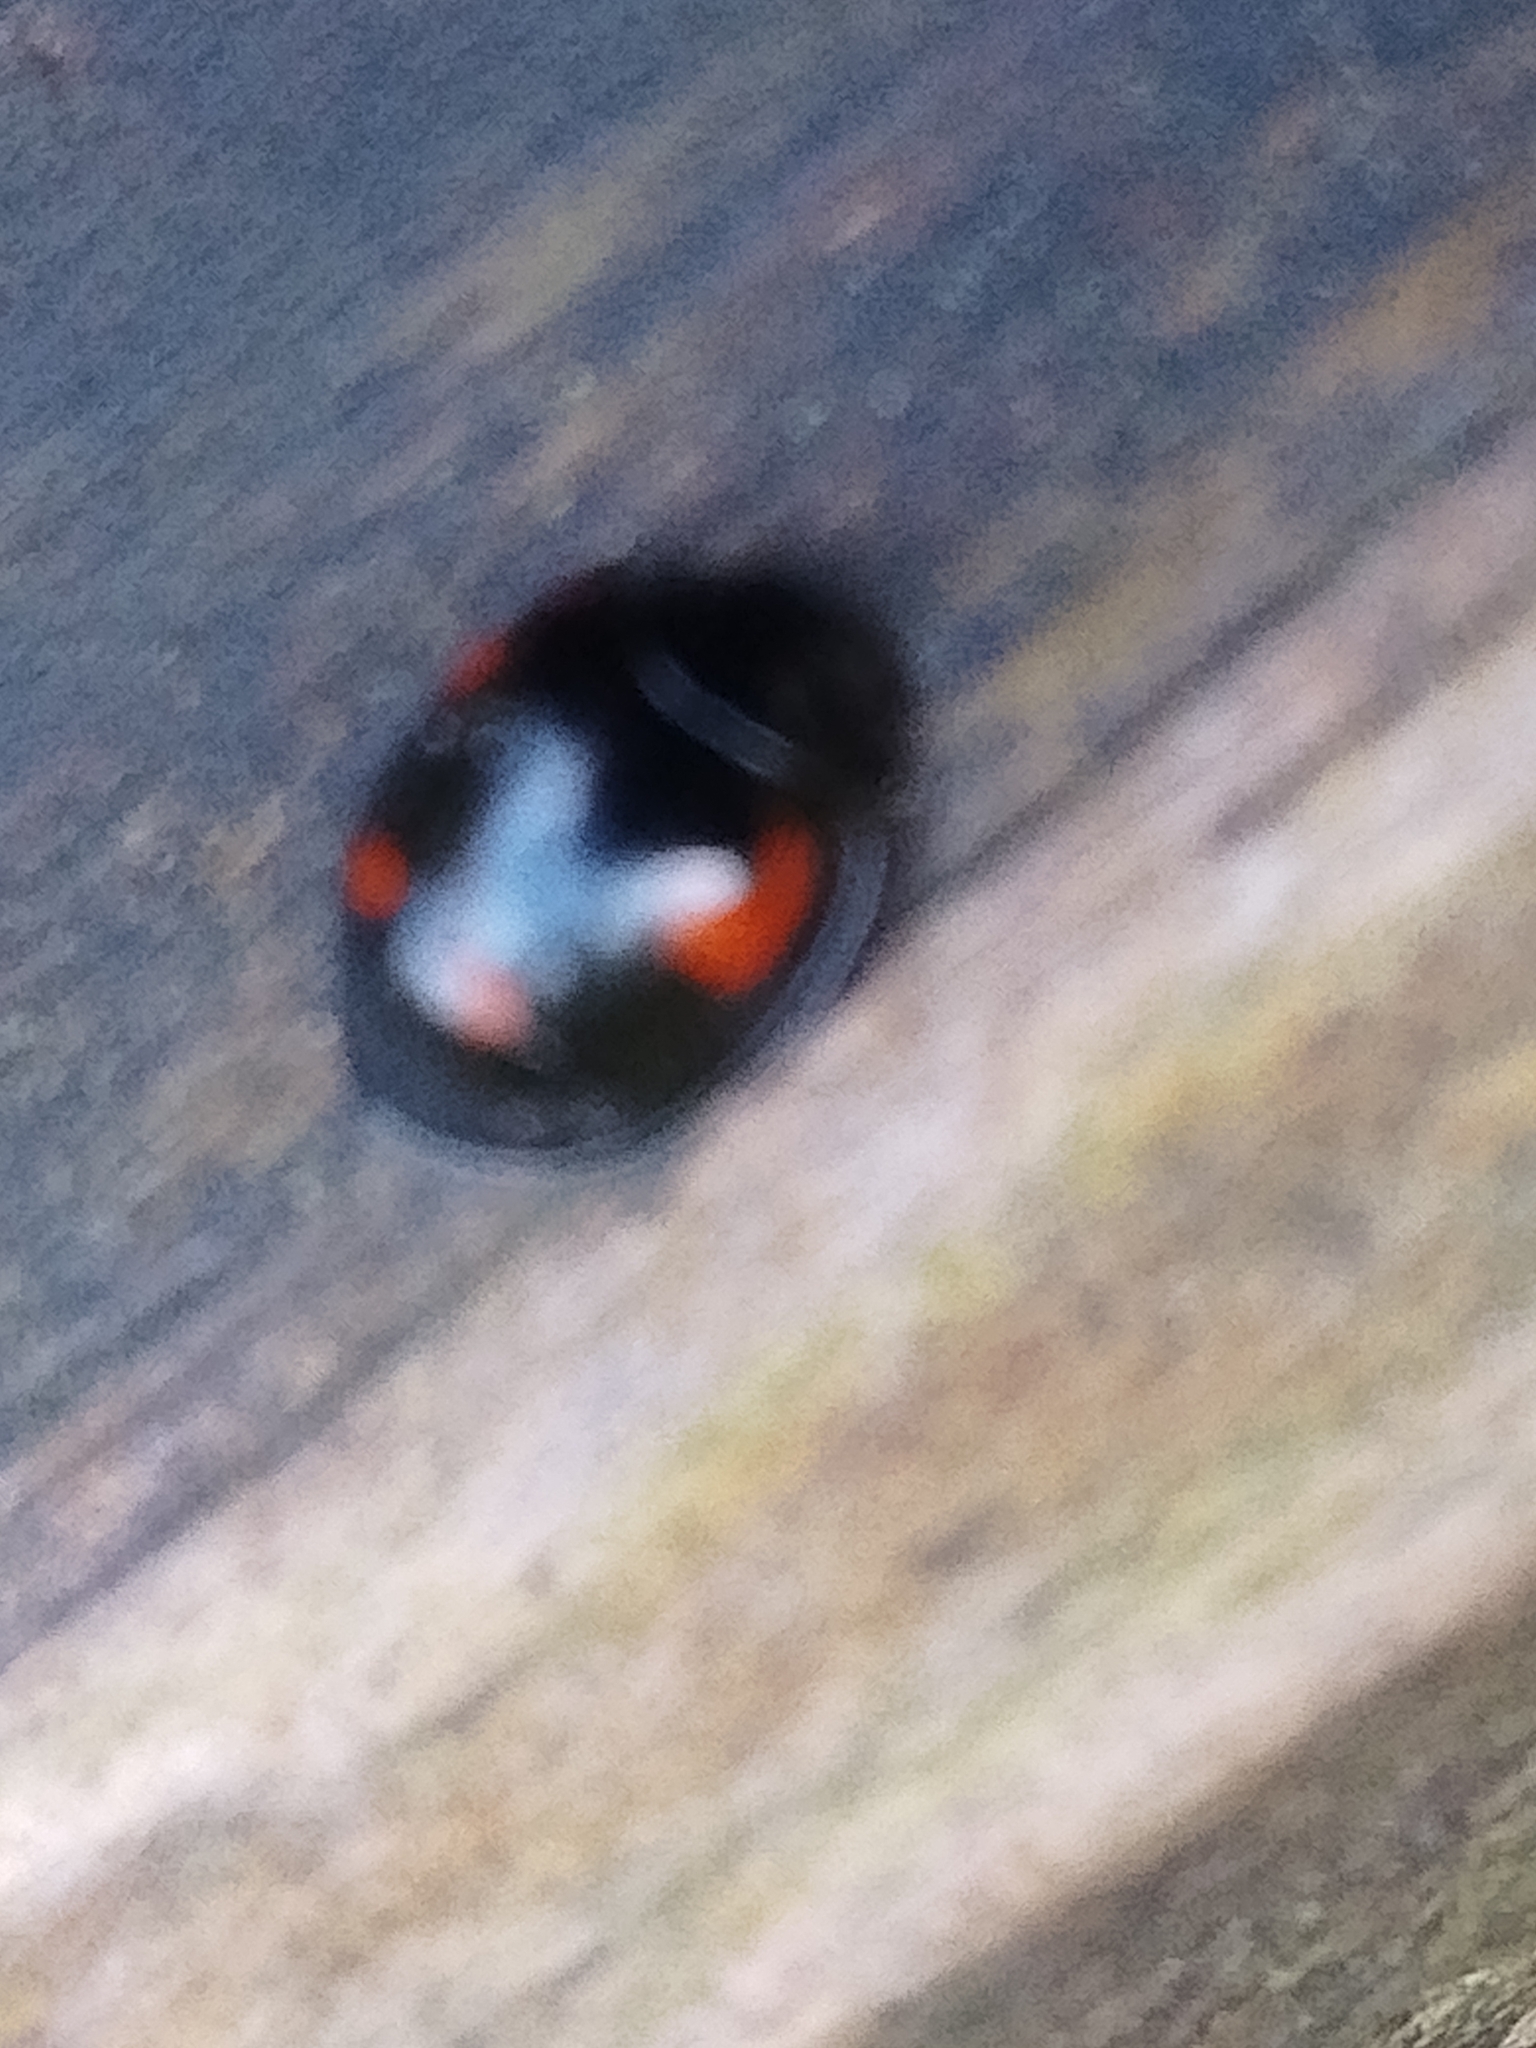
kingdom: Animalia
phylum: Arthropoda
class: Insecta
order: Coleoptera
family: Coccinellidae
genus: Brumus
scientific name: Brumus quadripustulatus
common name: Ladybird beetle
